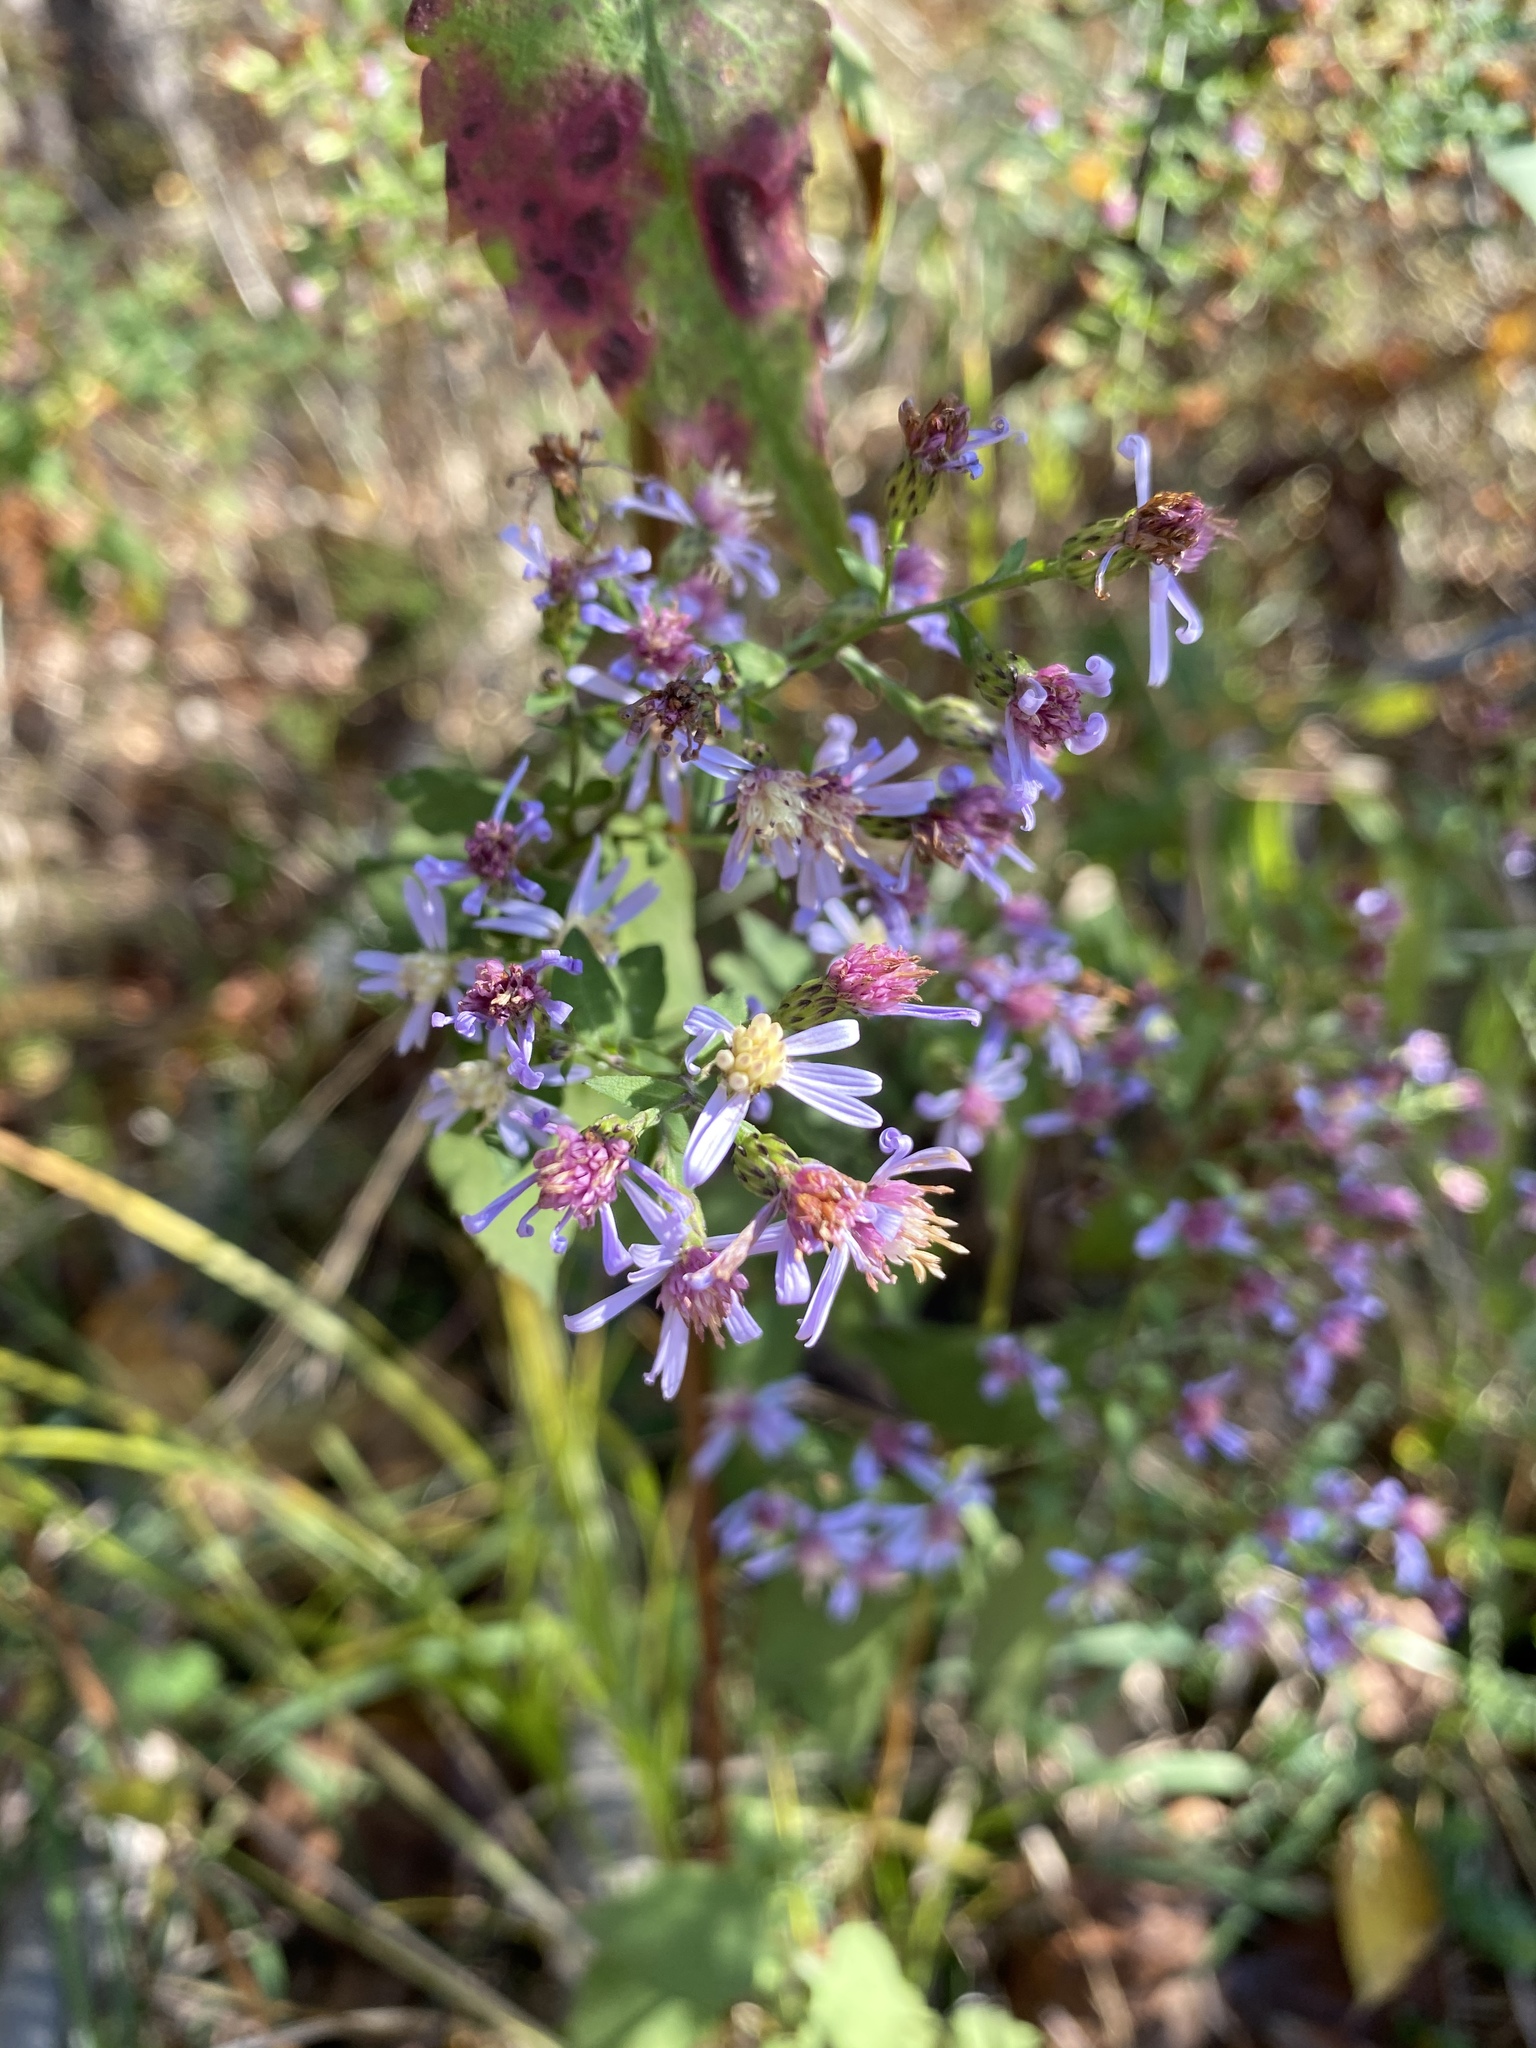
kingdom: Plantae
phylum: Tracheophyta
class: Magnoliopsida
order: Asterales
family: Asteraceae
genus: Symphyotrichum
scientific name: Symphyotrichum cordifolium
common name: Beeweed
